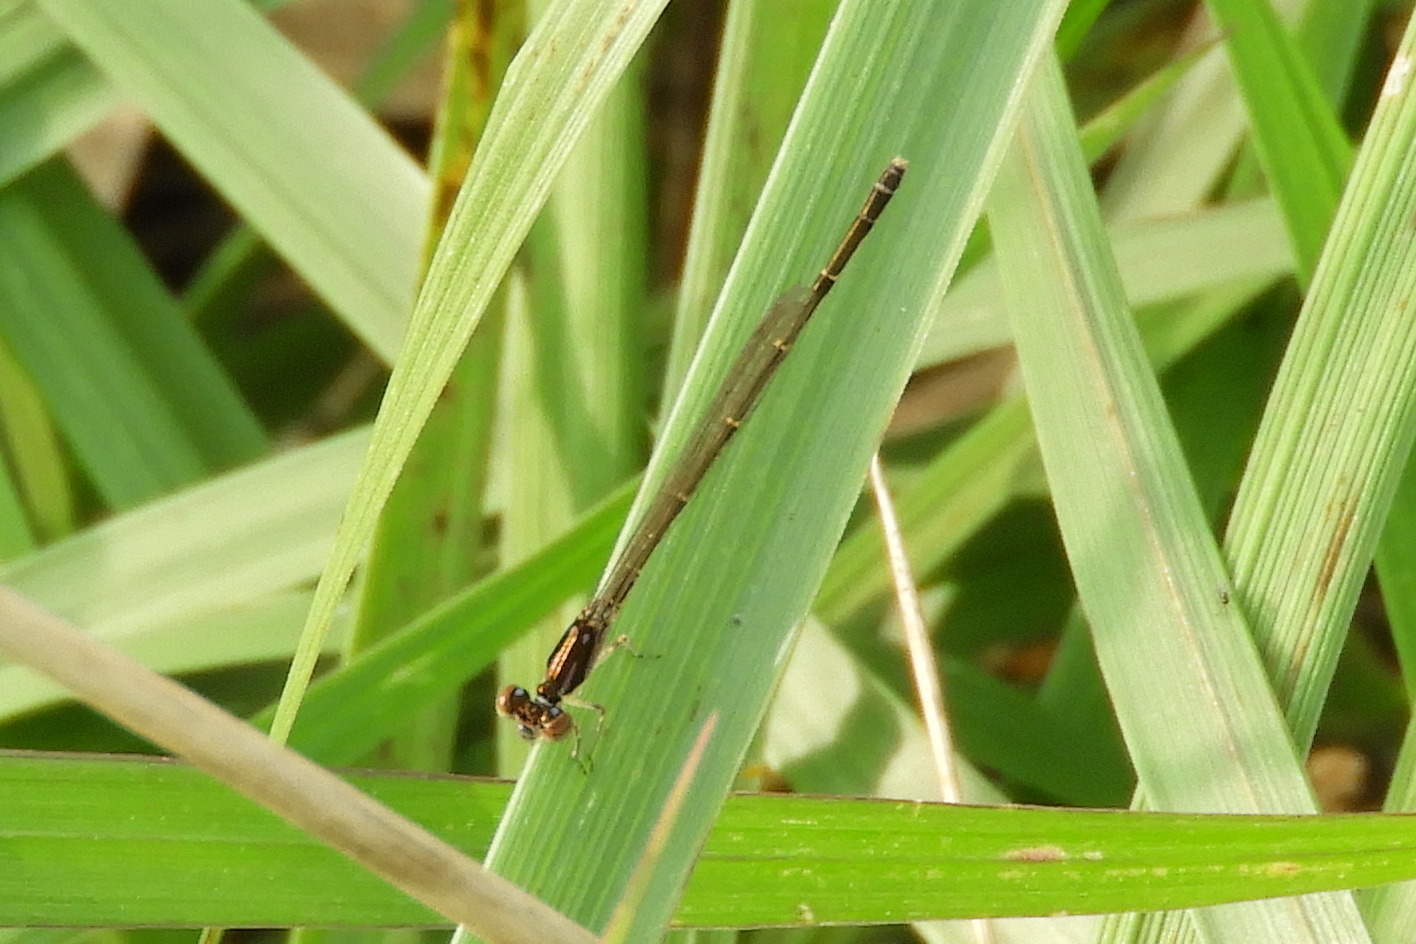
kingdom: Animalia
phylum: Arthropoda
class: Insecta
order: Odonata
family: Coenagrionidae
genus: Ischnura
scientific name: Ischnura posita
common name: Fragile forktail
